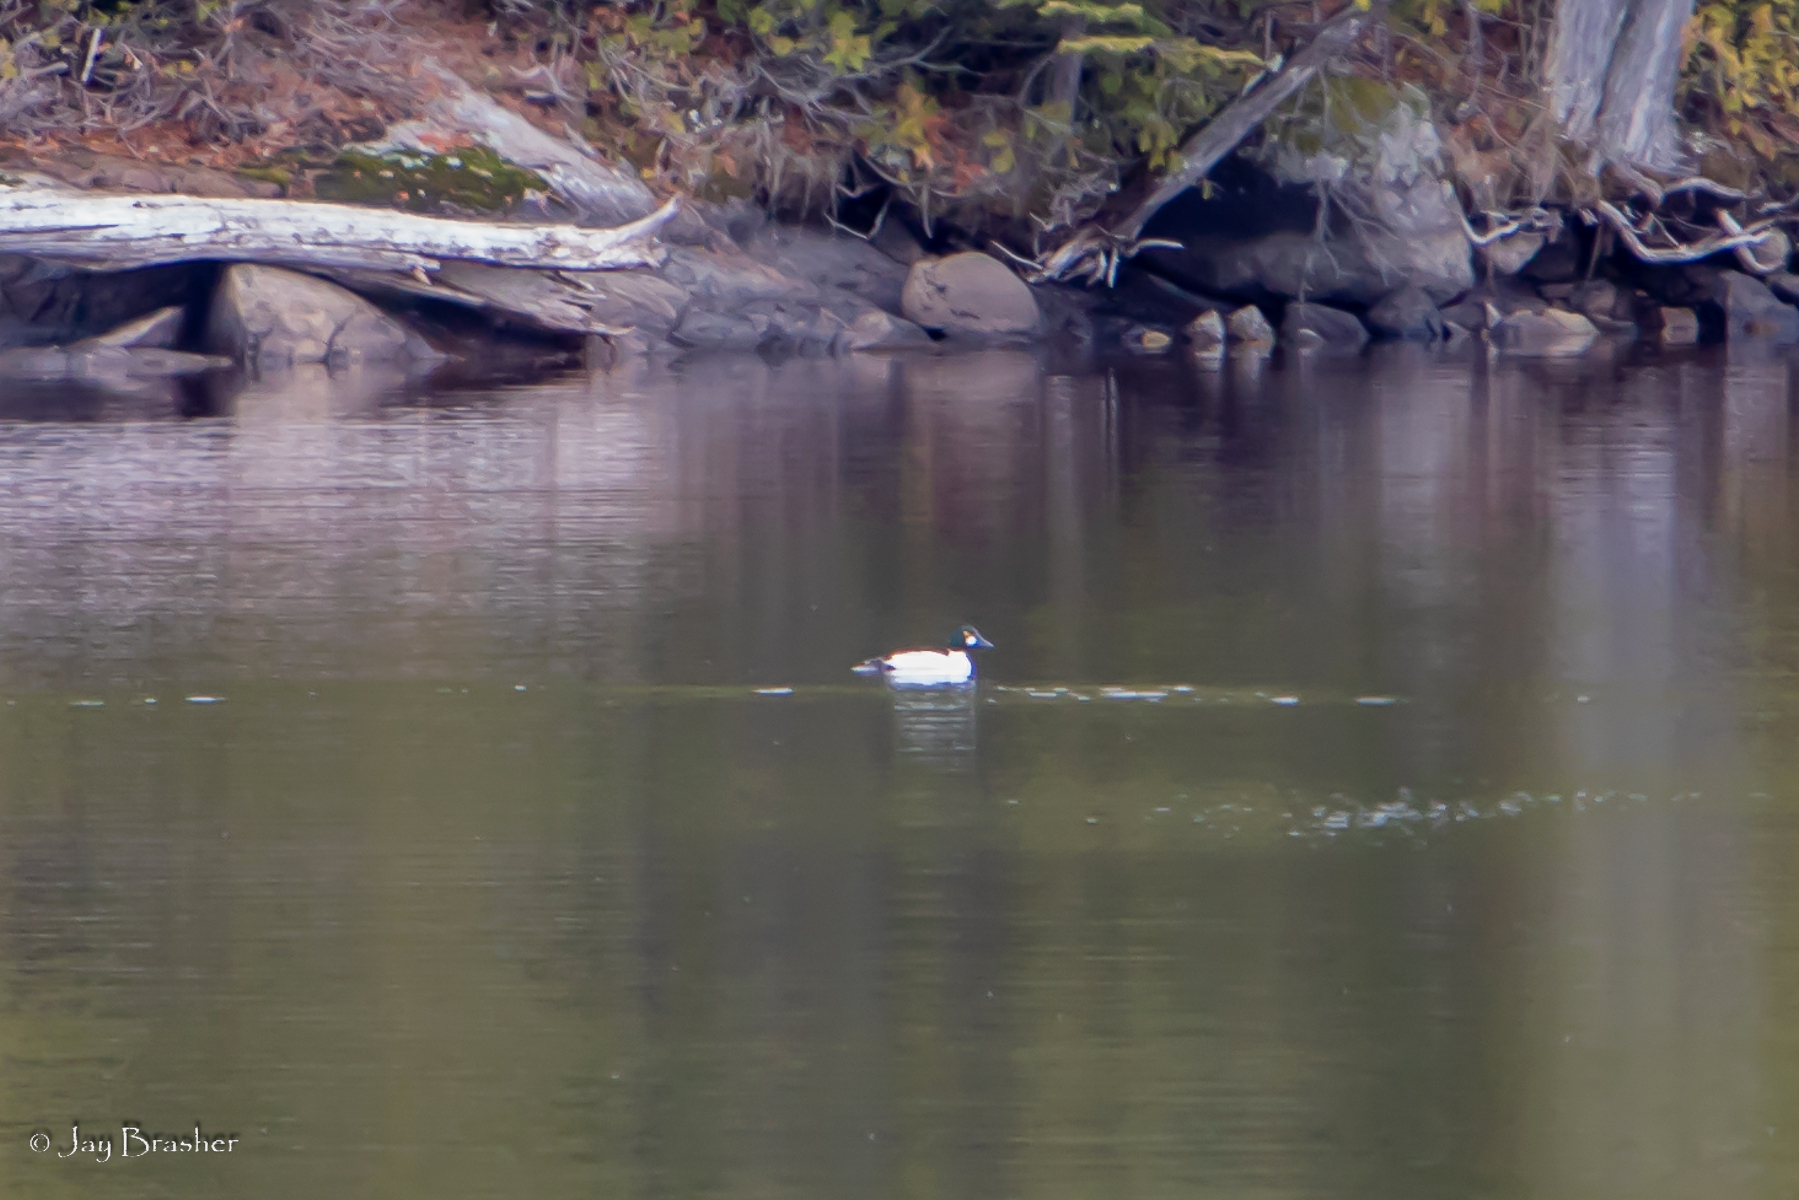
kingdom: Animalia
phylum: Chordata
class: Aves
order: Anseriformes
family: Anatidae
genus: Bucephala
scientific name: Bucephala clangula
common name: Common goldeneye
